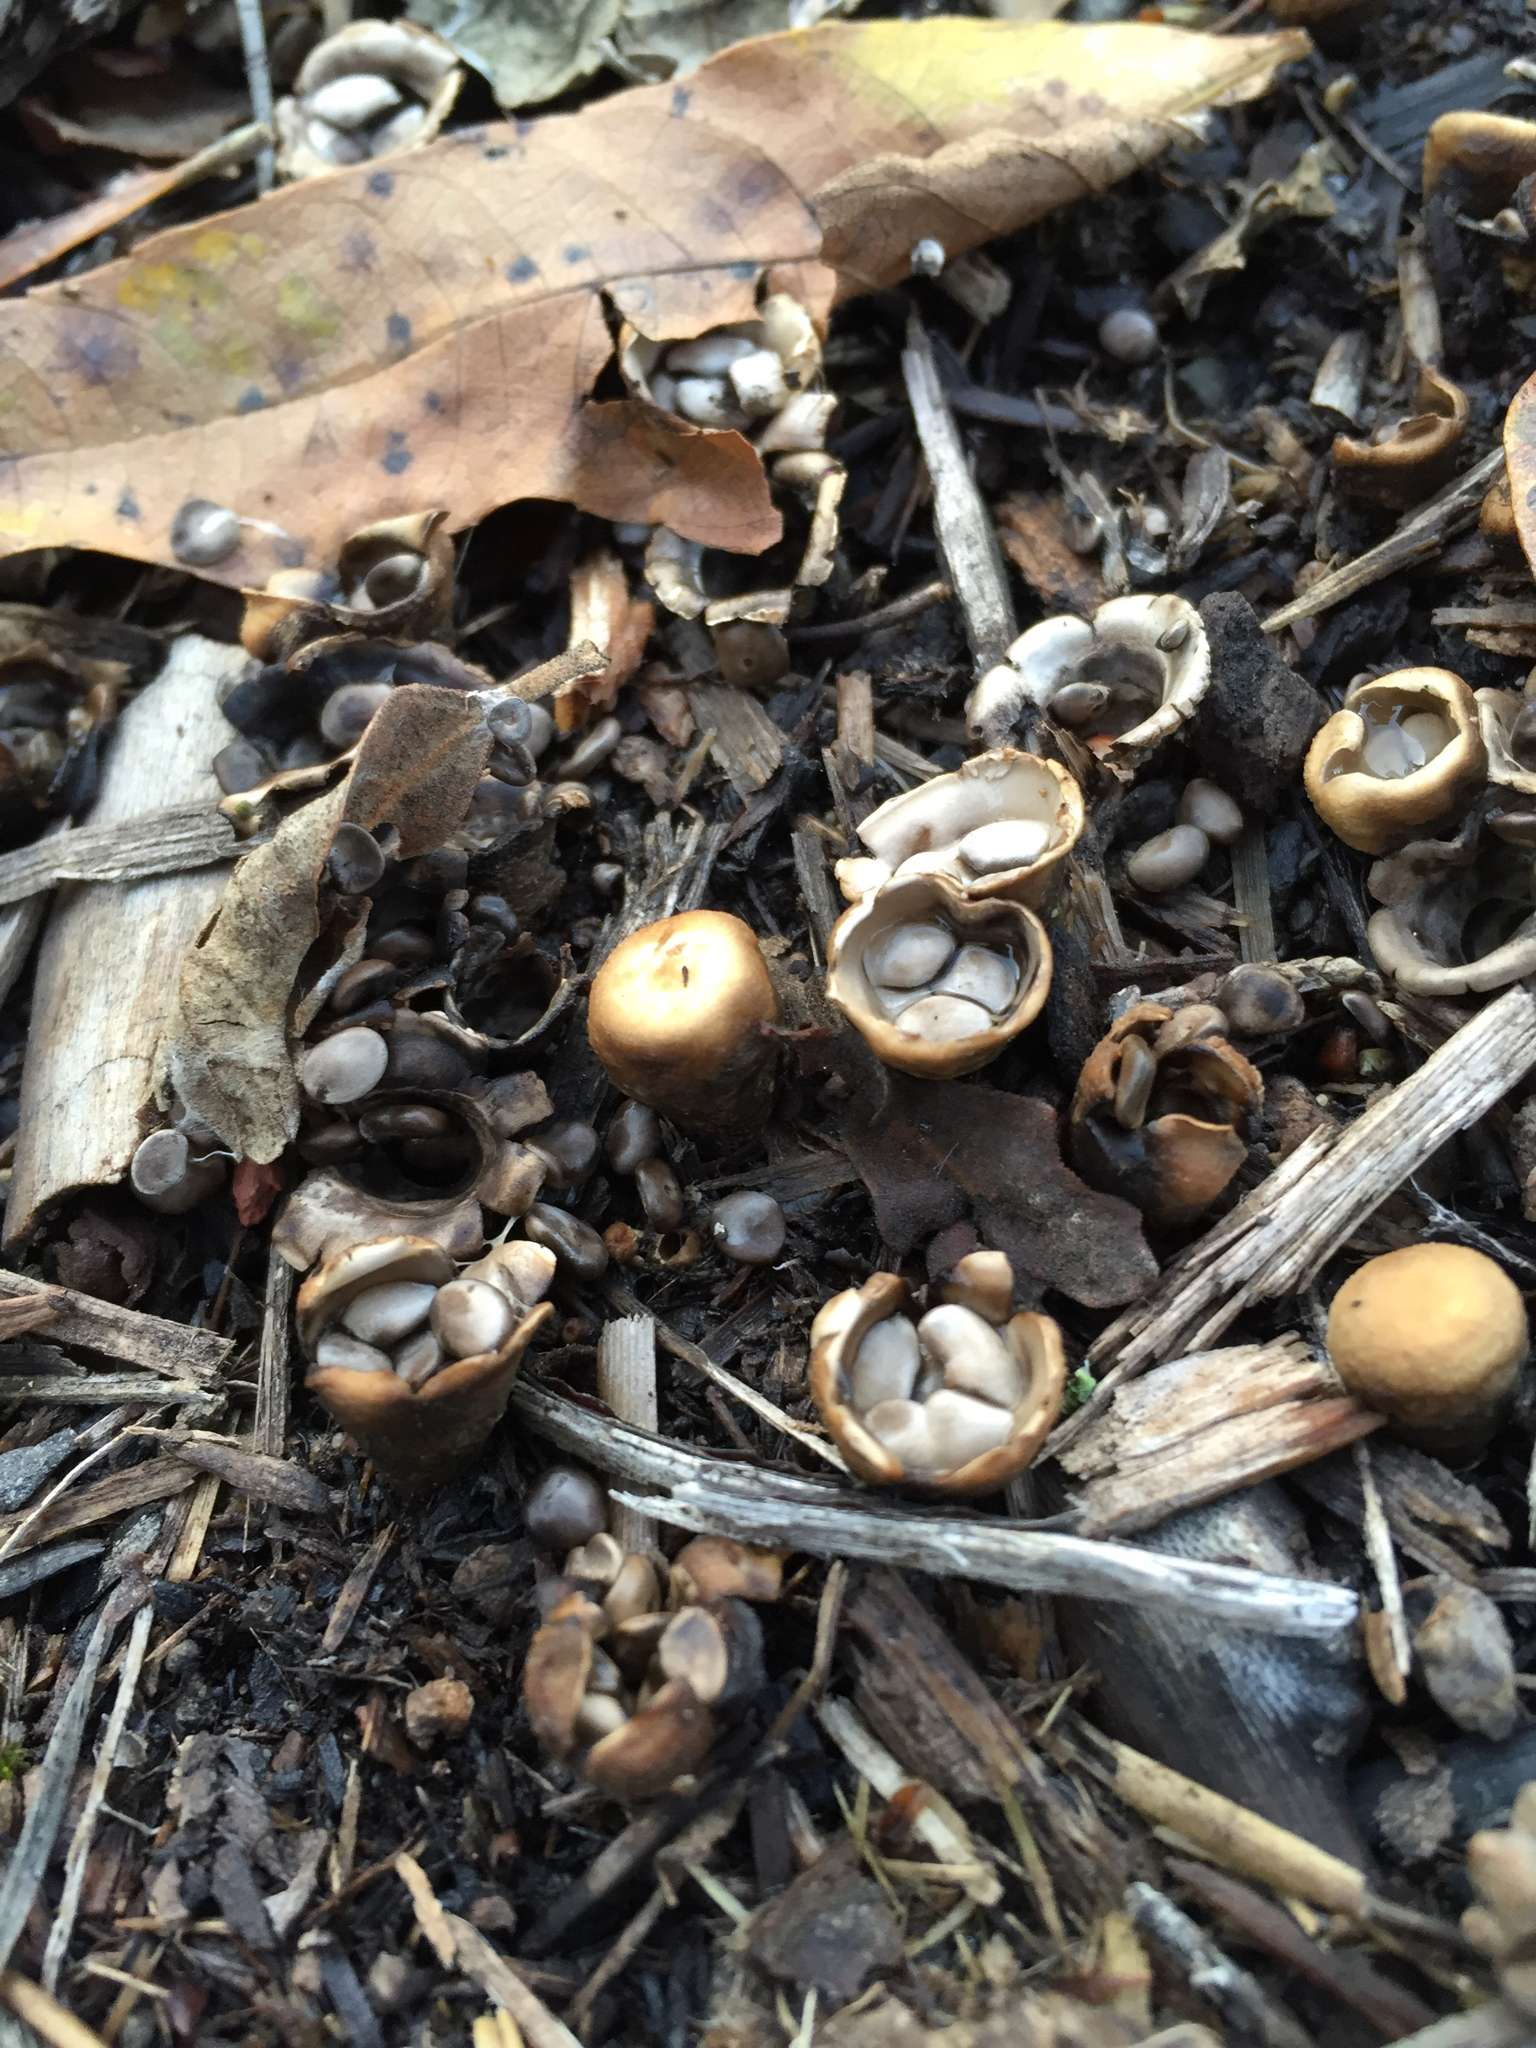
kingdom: Fungi
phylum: Basidiomycota
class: Agaricomycetes
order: Agaricales
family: Agaricaceae
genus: Nidula
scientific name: Nidula niveotomentosa
